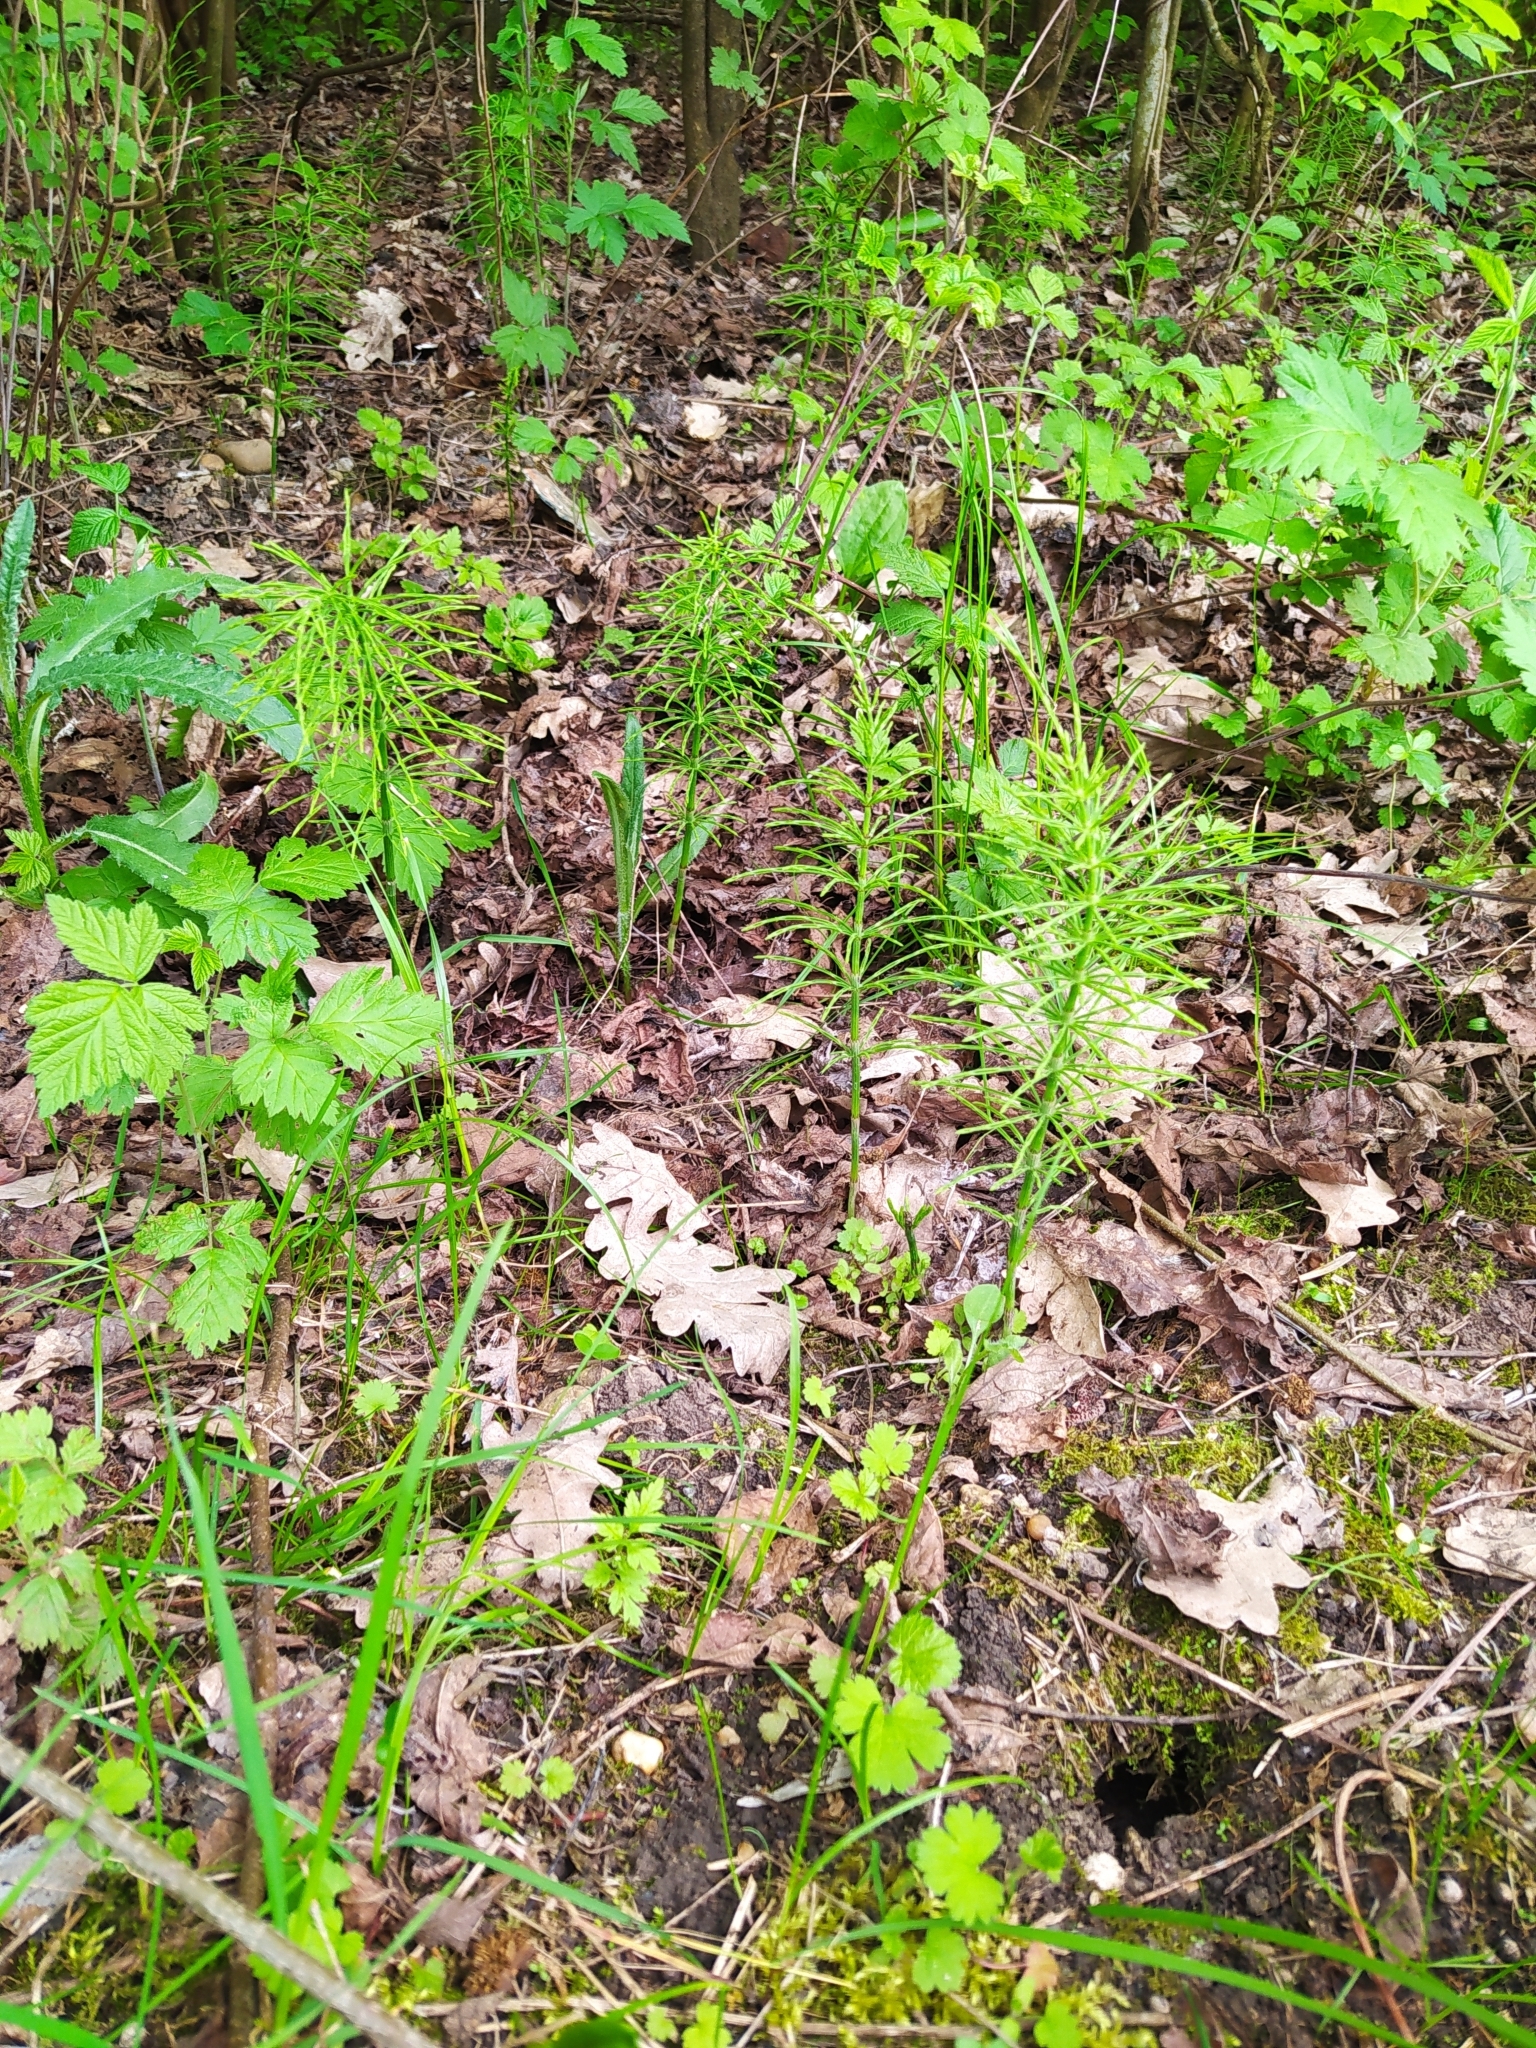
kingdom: Plantae
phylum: Tracheophyta
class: Polypodiopsida
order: Equisetales
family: Equisetaceae
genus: Equisetum
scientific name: Equisetum arvense
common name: Field horsetail
